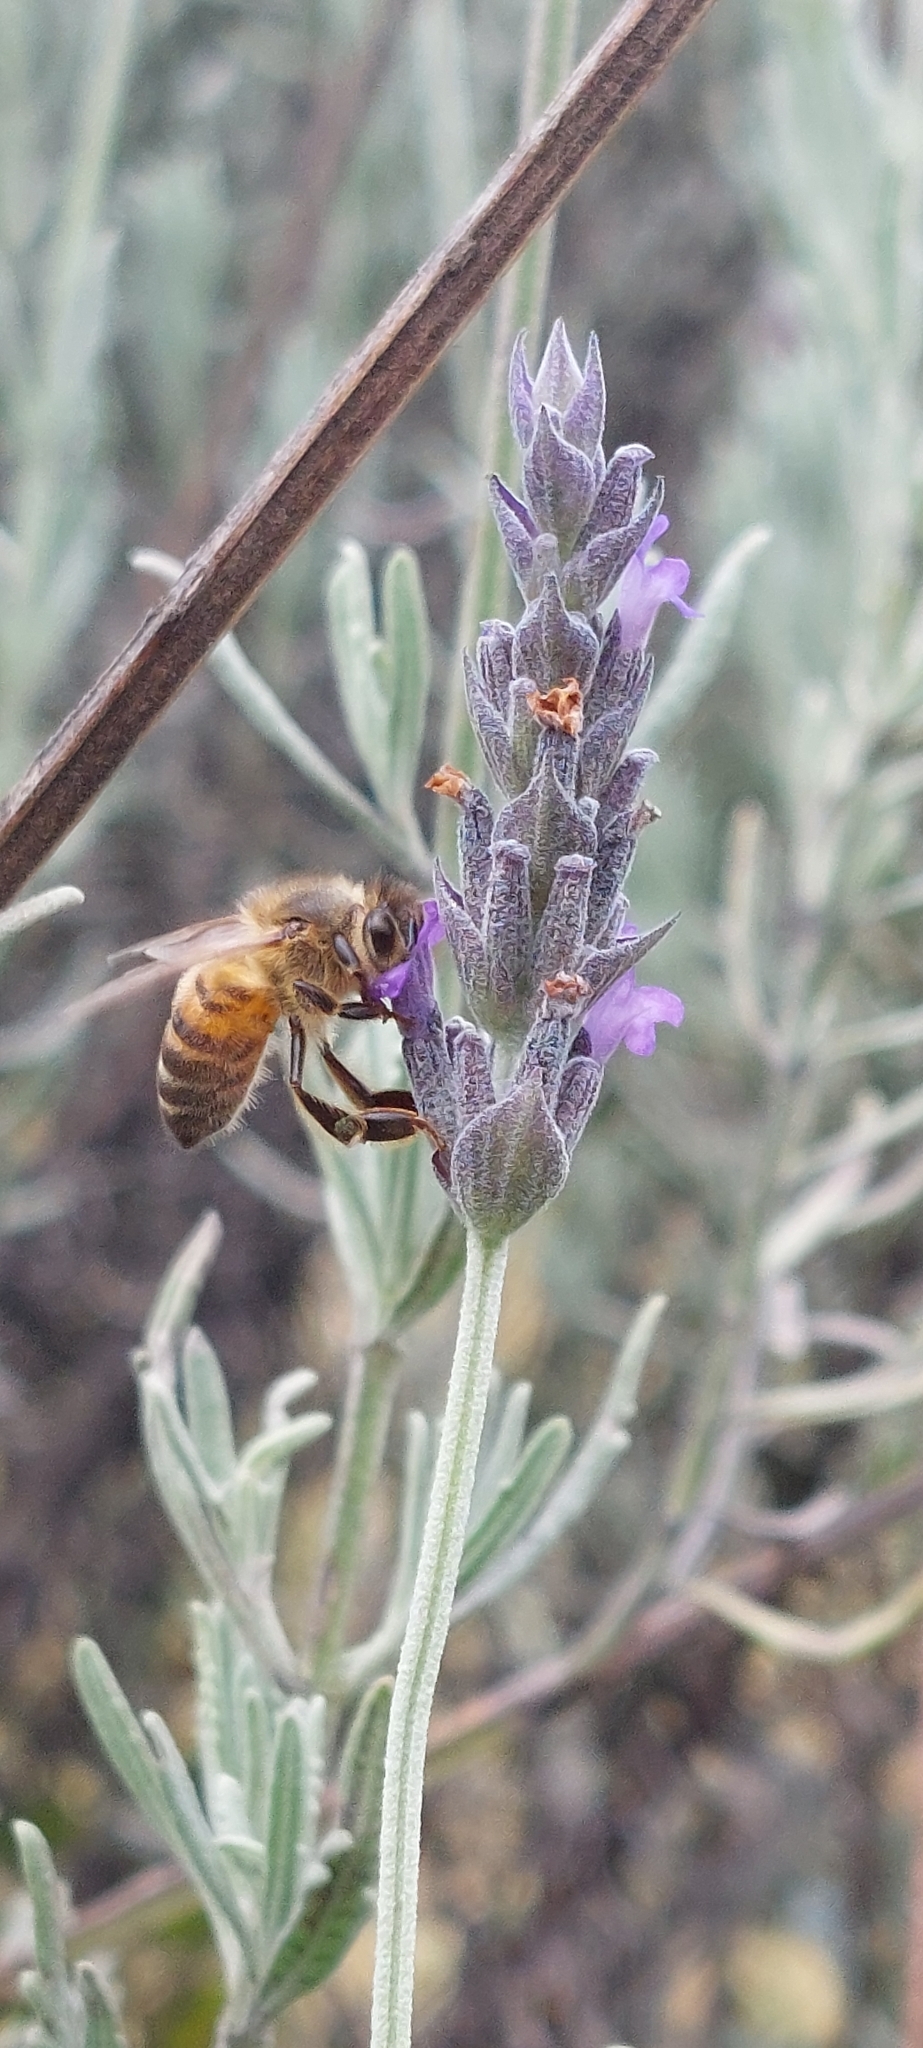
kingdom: Animalia
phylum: Arthropoda
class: Insecta
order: Hymenoptera
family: Apidae
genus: Apis
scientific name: Apis mellifera
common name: Honey bee
